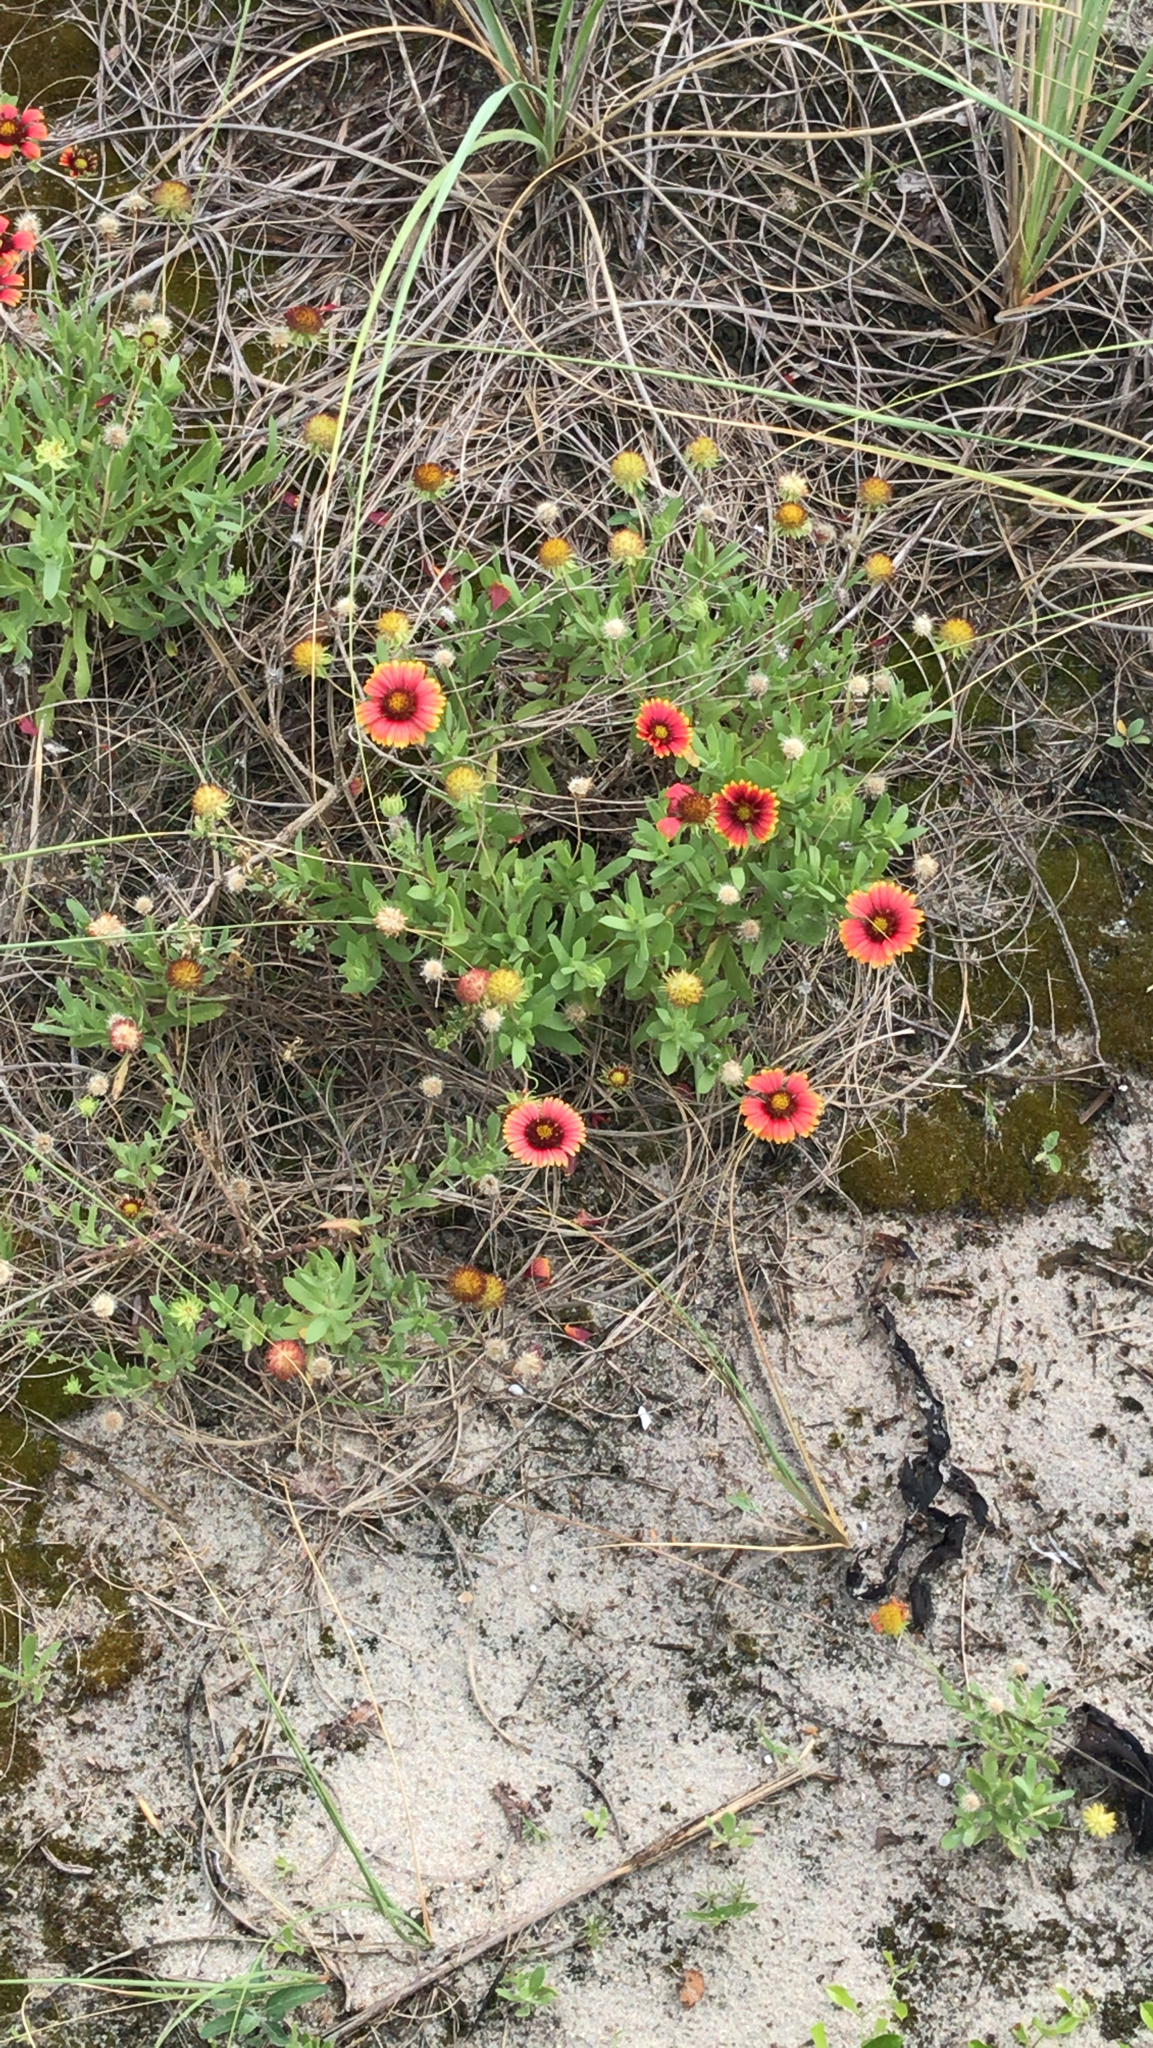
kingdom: Plantae
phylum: Tracheophyta
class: Magnoliopsida
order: Asterales
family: Asteraceae
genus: Gaillardia
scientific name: Gaillardia pulchella
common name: Firewheel
